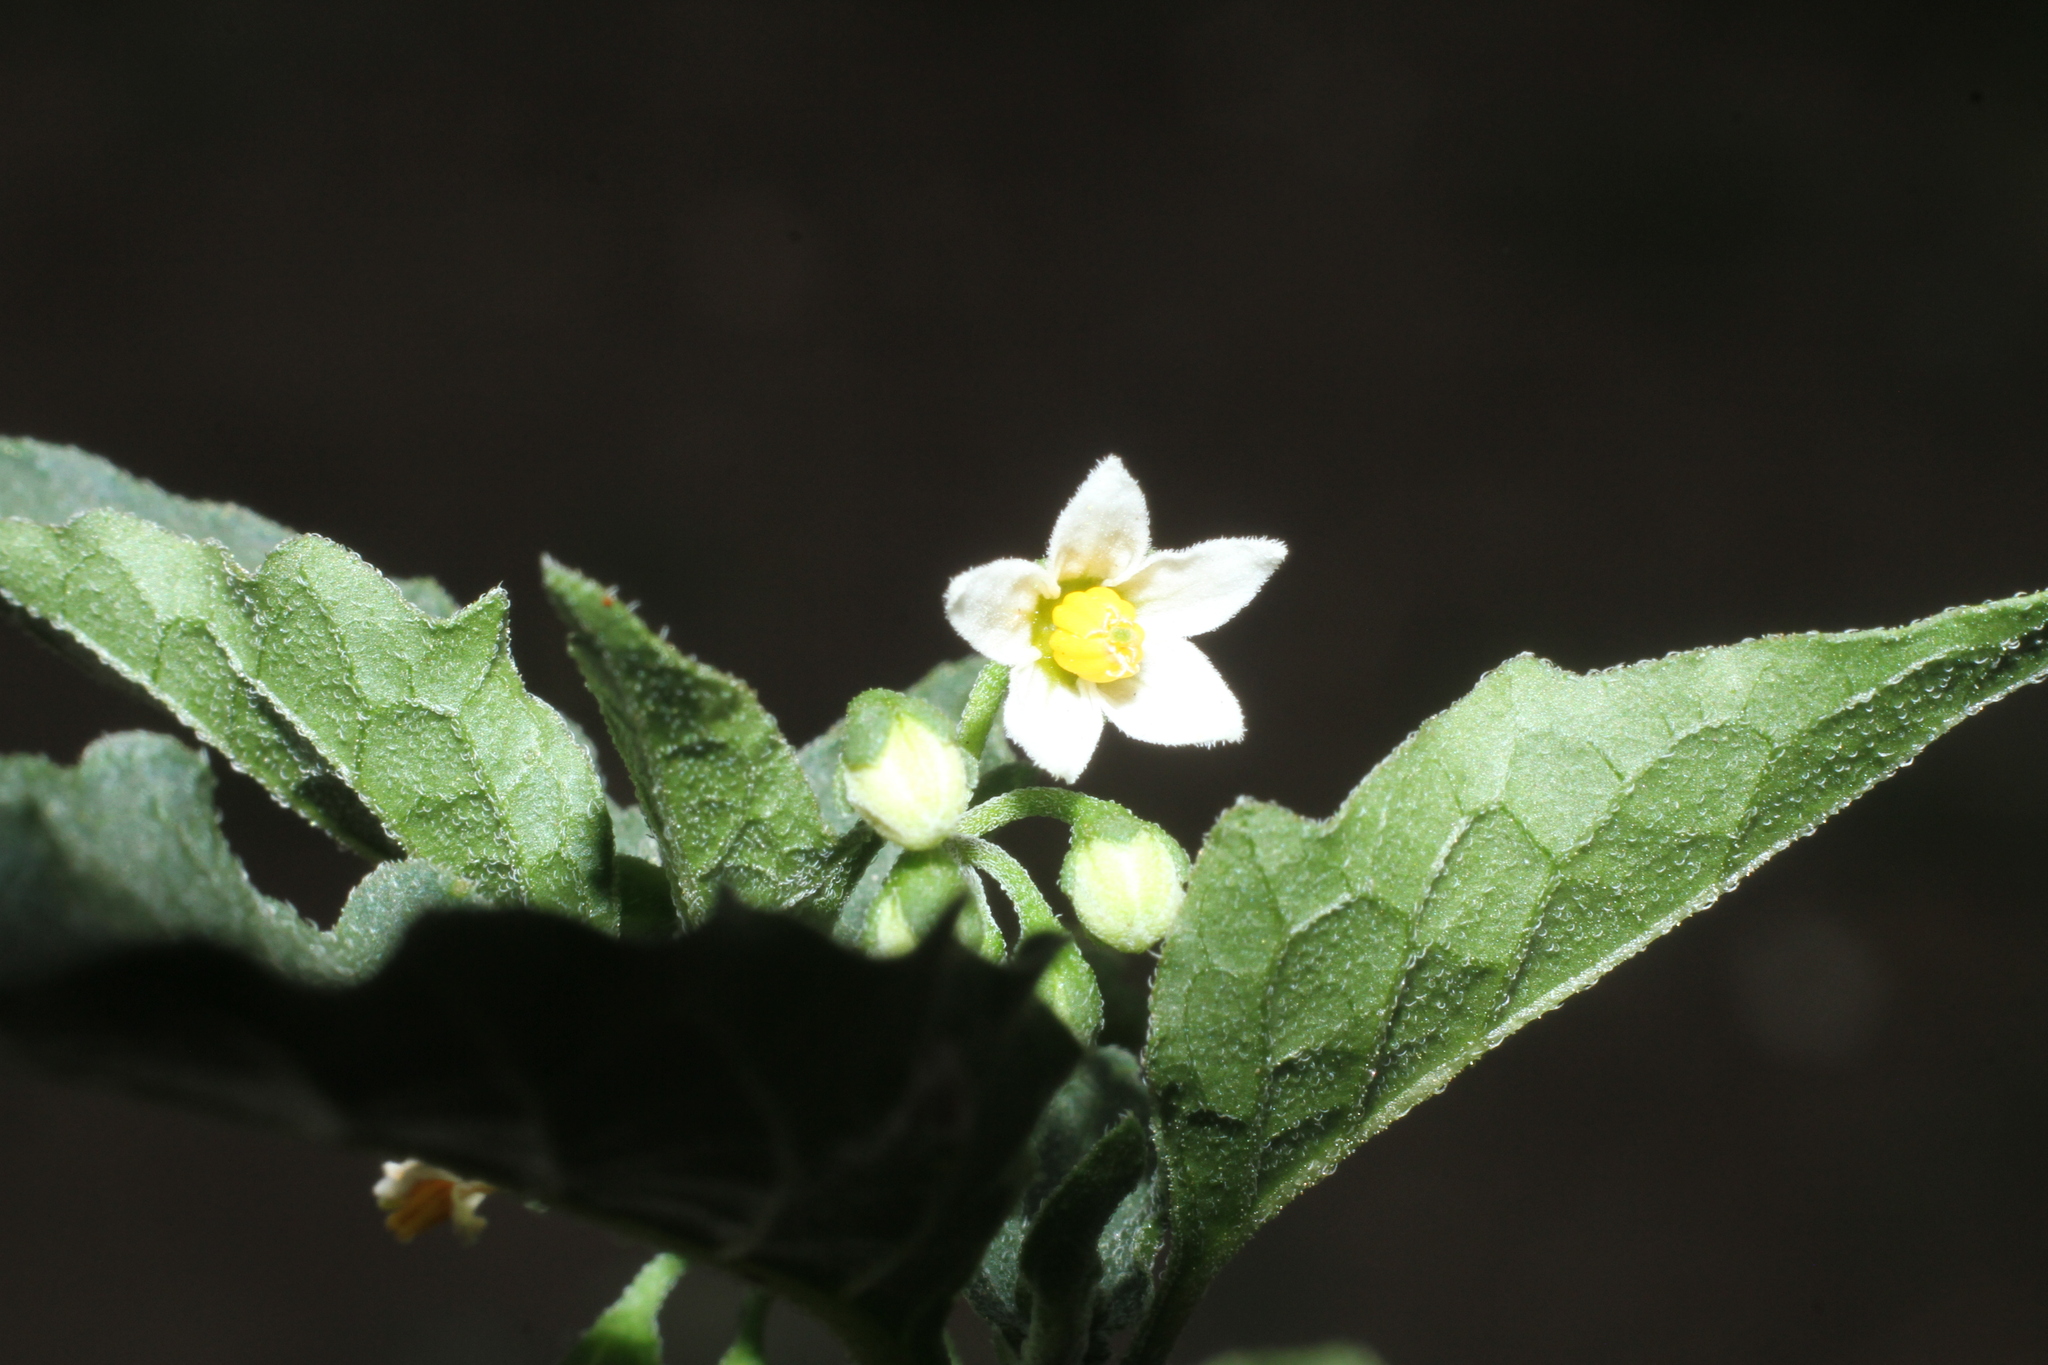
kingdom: Plantae
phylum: Tracheophyta
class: Magnoliopsida
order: Solanales
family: Solanaceae
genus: Solanum
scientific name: Solanum nigrum
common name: Black nightshade
